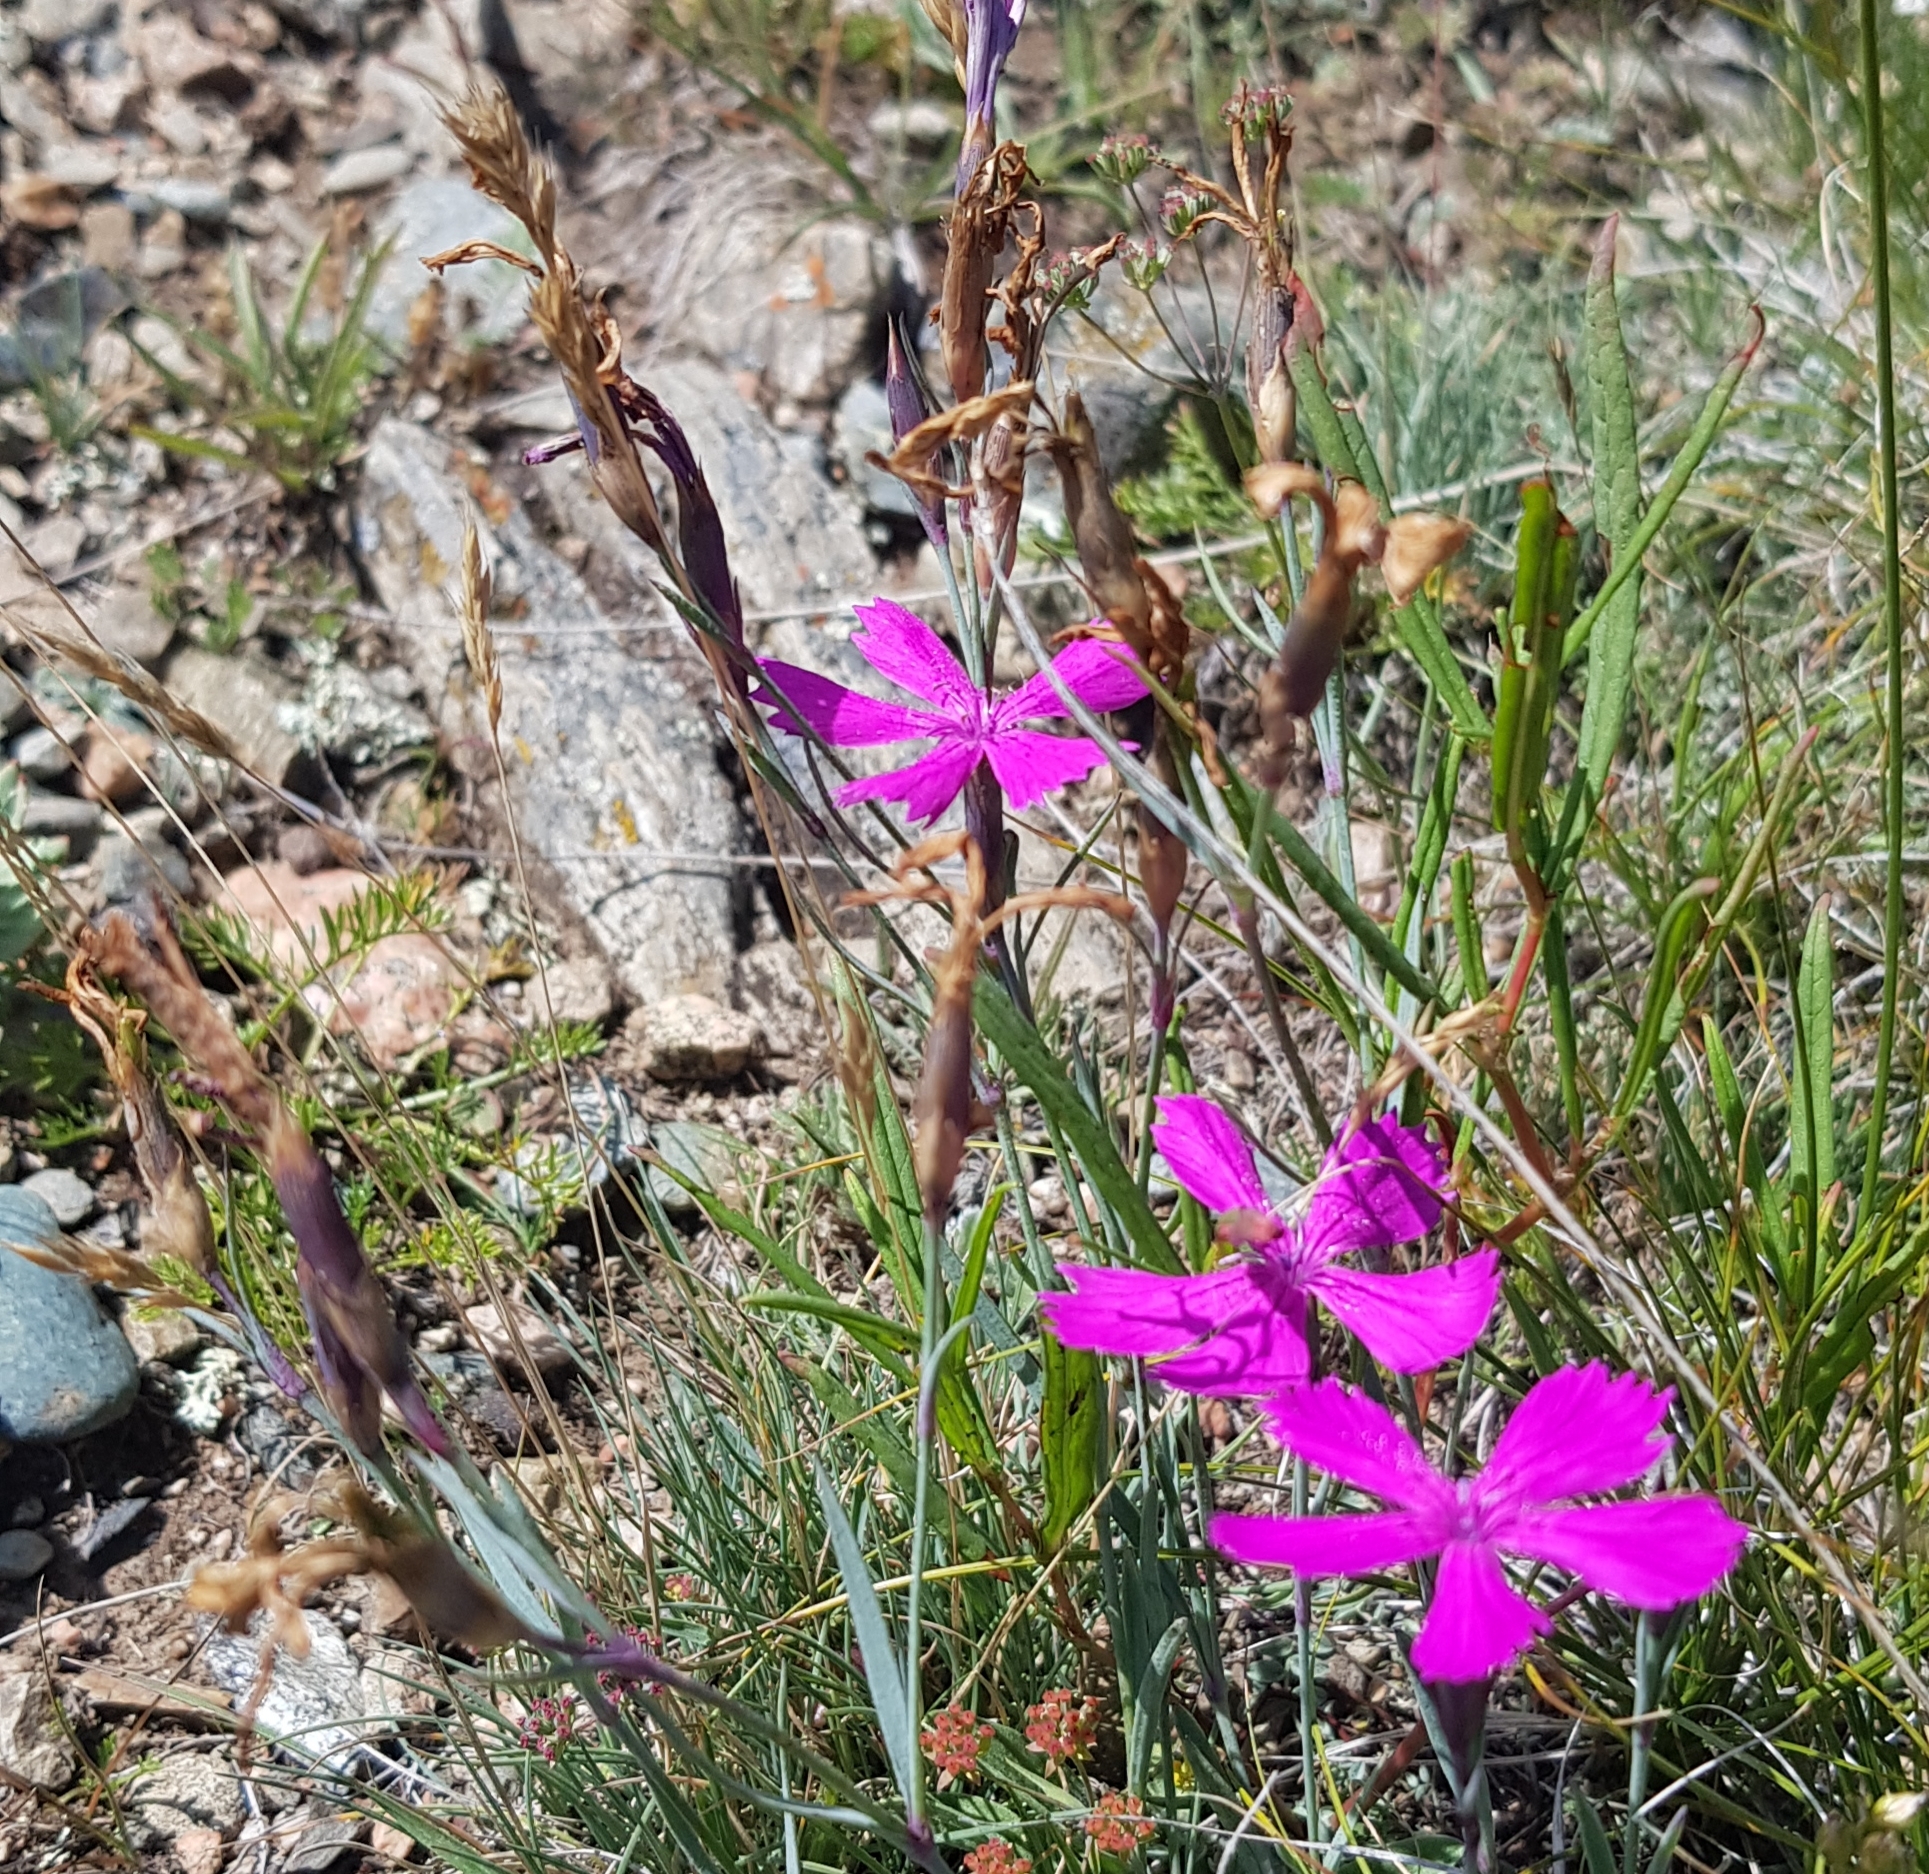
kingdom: Plantae
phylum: Tracheophyta
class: Magnoliopsida
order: Caryophyllales
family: Caryophyllaceae
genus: Dianthus
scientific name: Dianthus chinensis
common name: Rainbow pink
